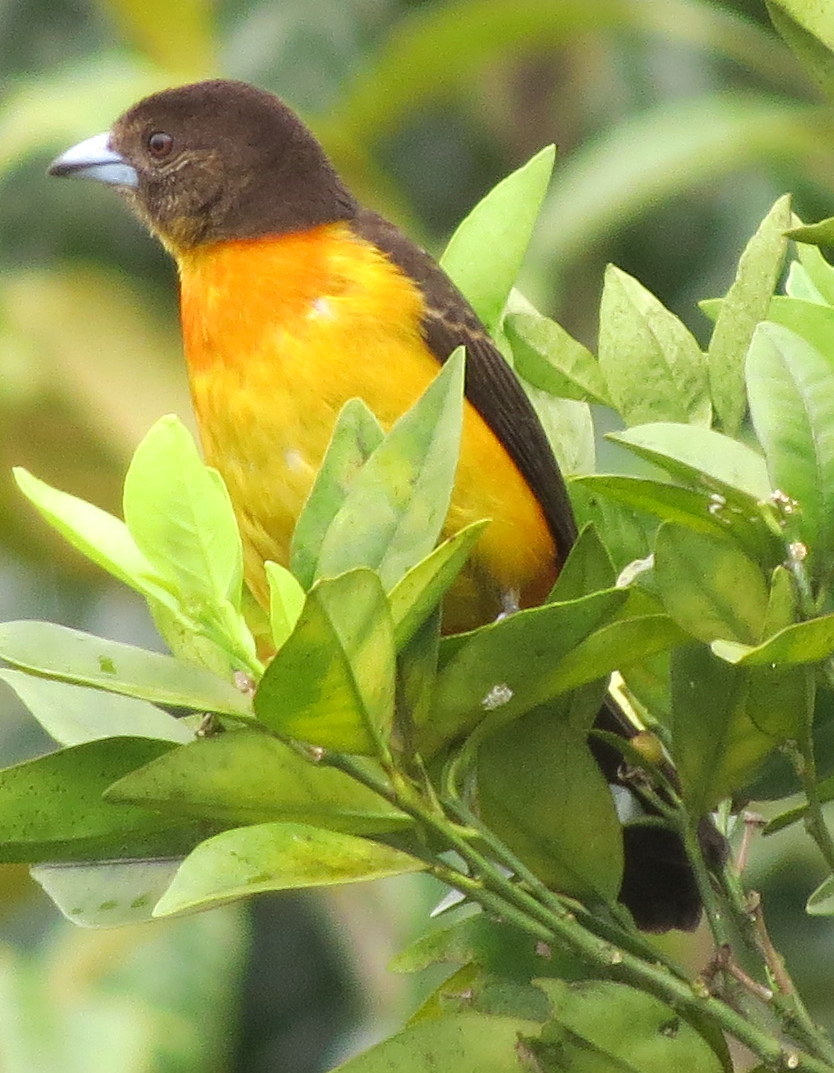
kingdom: Animalia
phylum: Chordata
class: Aves
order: Passeriformes
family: Thraupidae
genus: Ramphocelus
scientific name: Ramphocelus flammigerus
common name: Flame-rumped tanager
